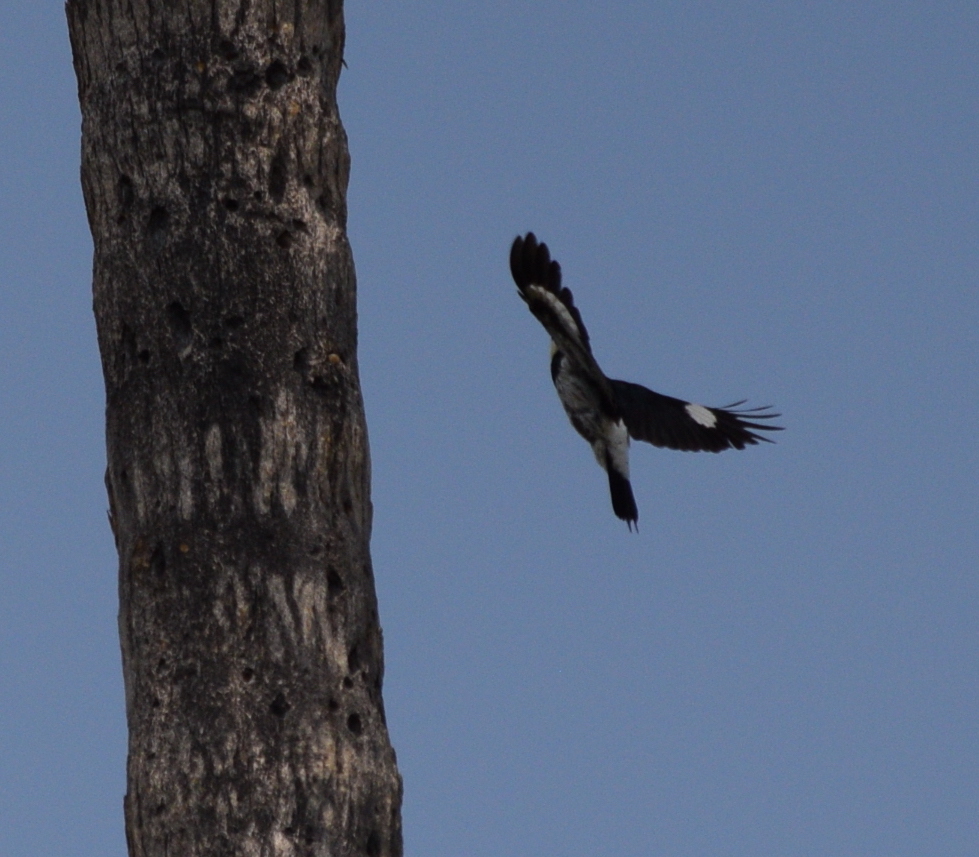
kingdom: Animalia
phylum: Chordata
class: Aves
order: Piciformes
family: Picidae
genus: Melanerpes
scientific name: Melanerpes formicivorus
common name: Acorn woodpecker
